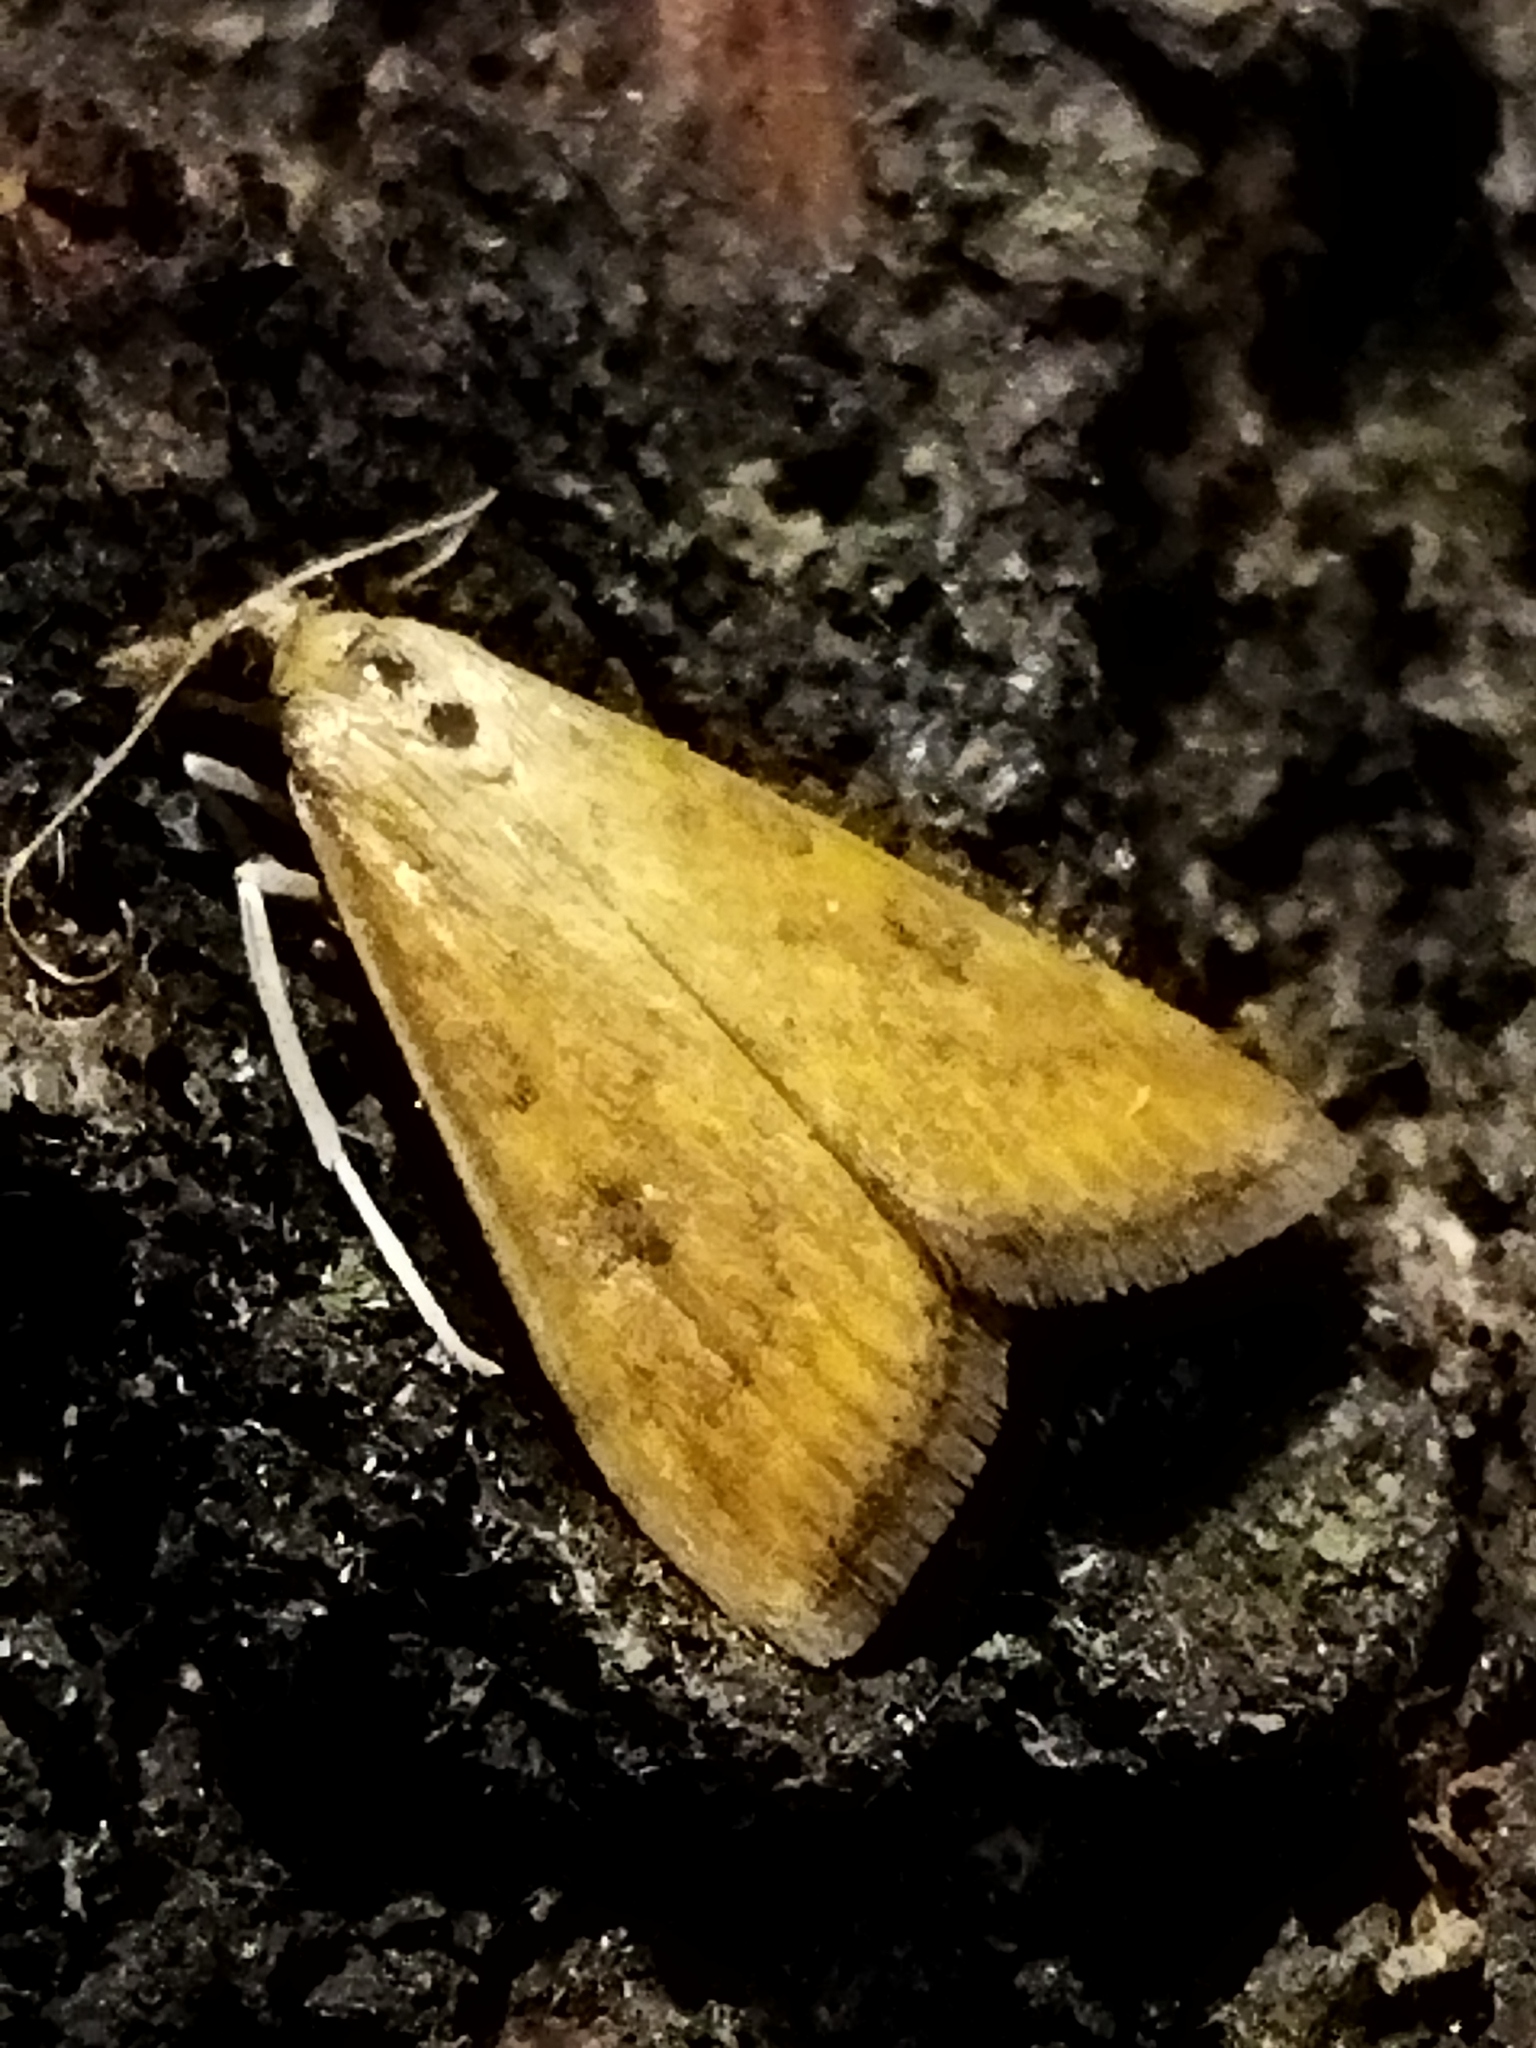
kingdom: Animalia
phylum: Arthropoda
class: Insecta
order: Lepidoptera
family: Crambidae
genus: Udea
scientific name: Udea ferrugalis
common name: Rusty dot
